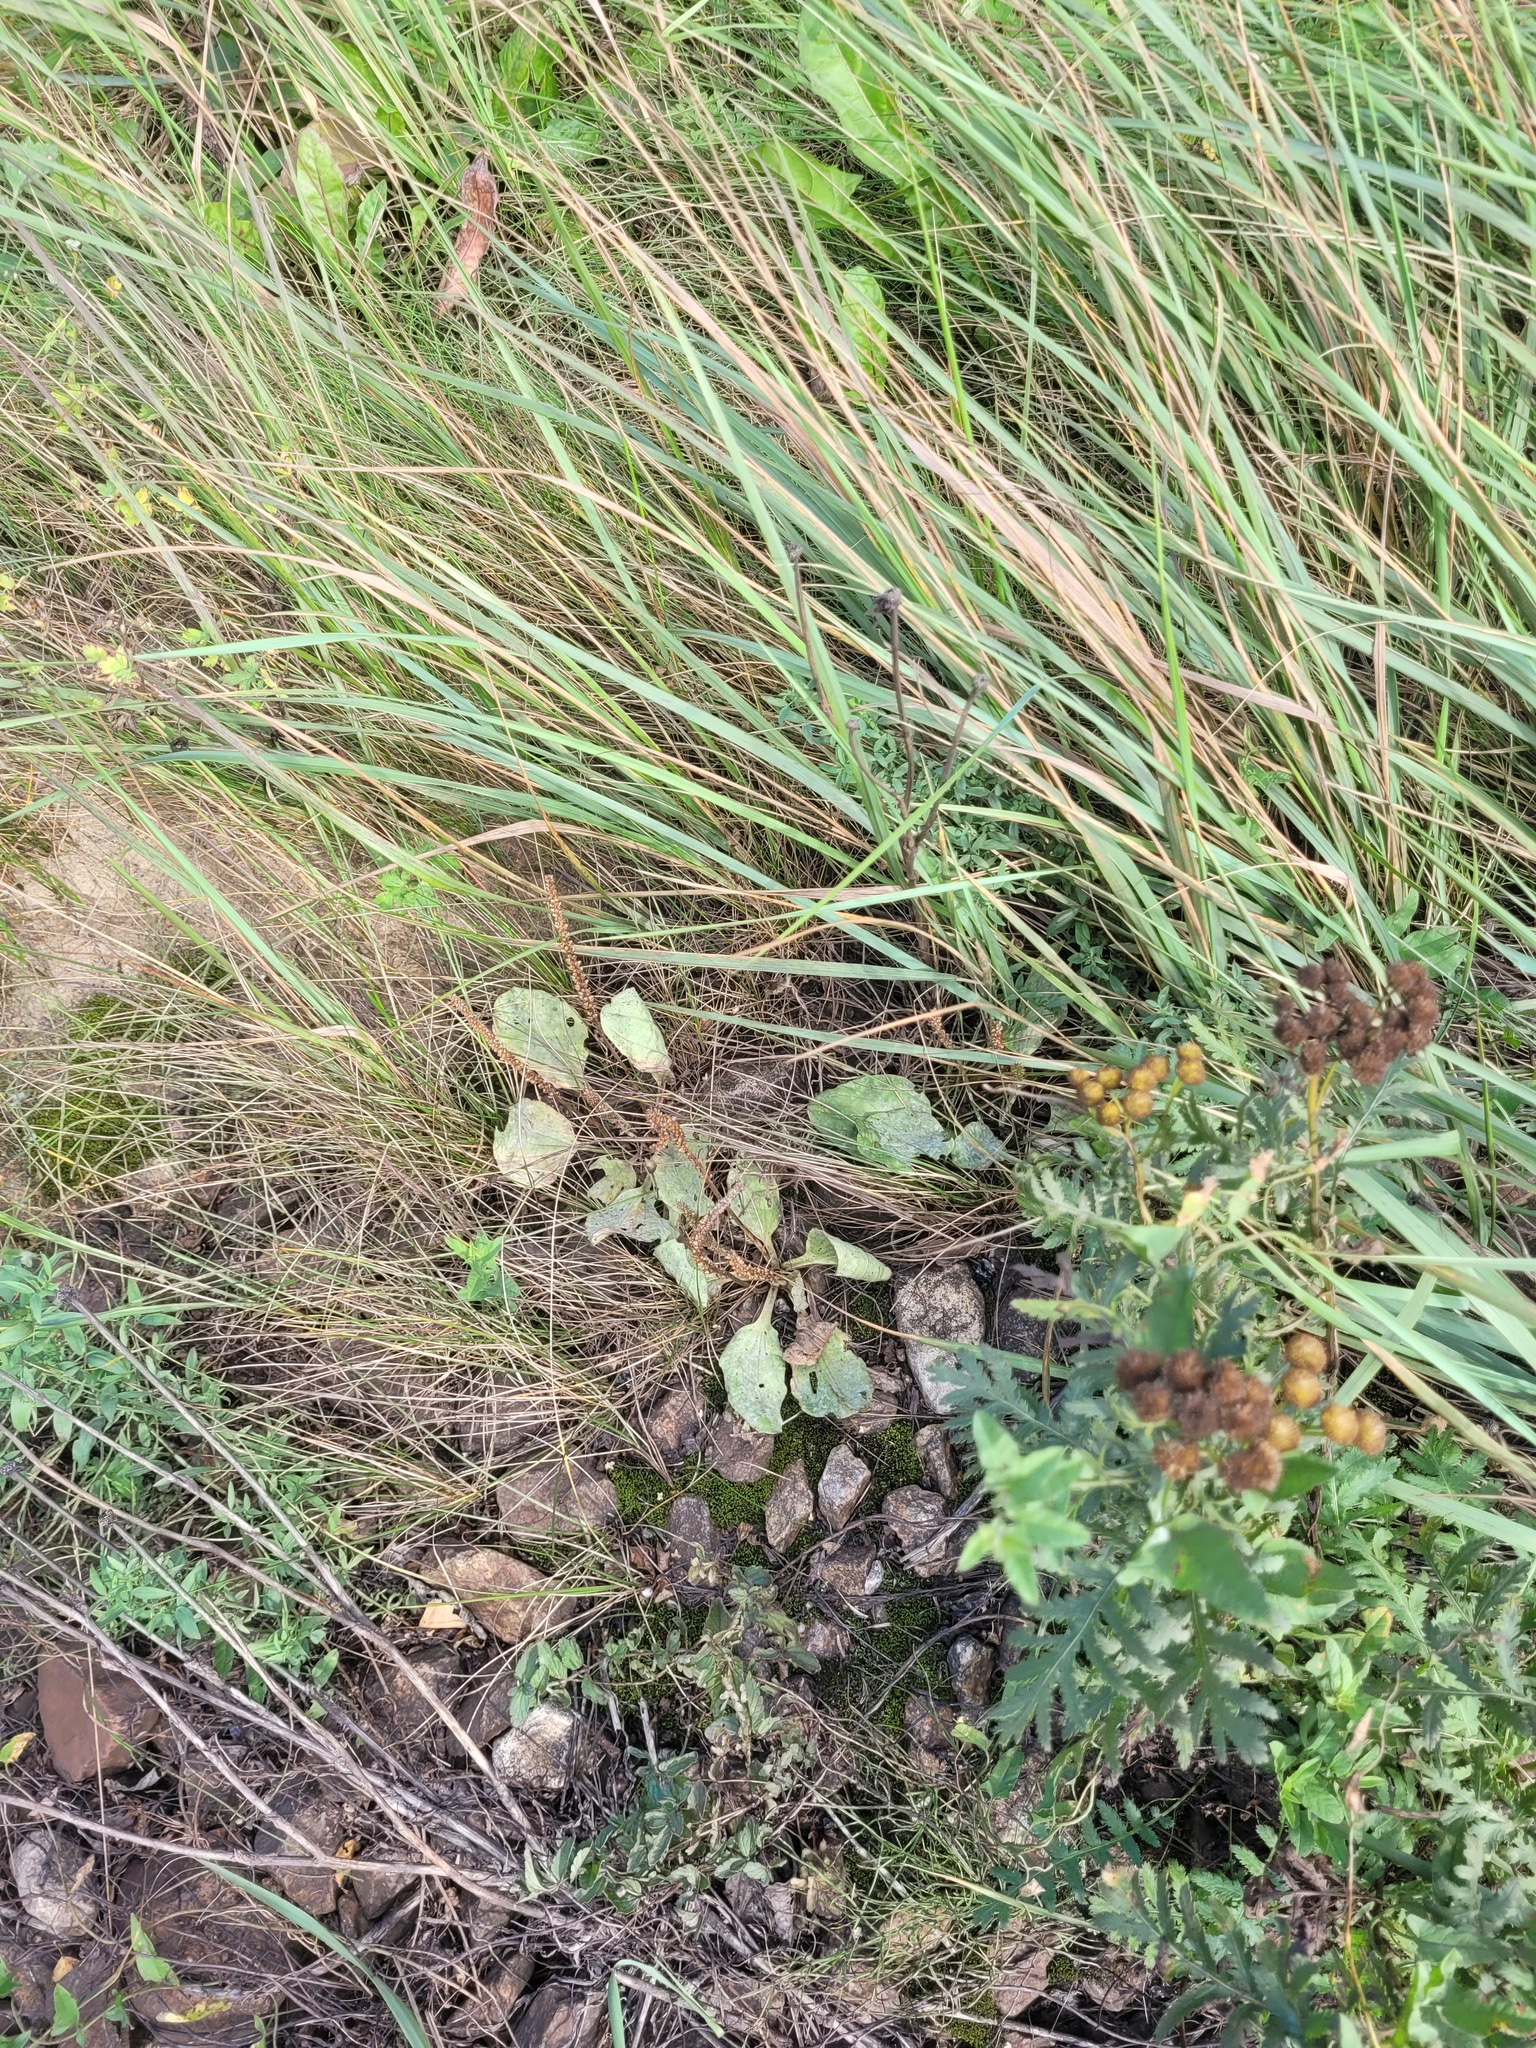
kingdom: Plantae
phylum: Tracheophyta
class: Magnoliopsida
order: Lamiales
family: Plantaginaceae
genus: Plantago
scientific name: Plantago major
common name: Common plantain
